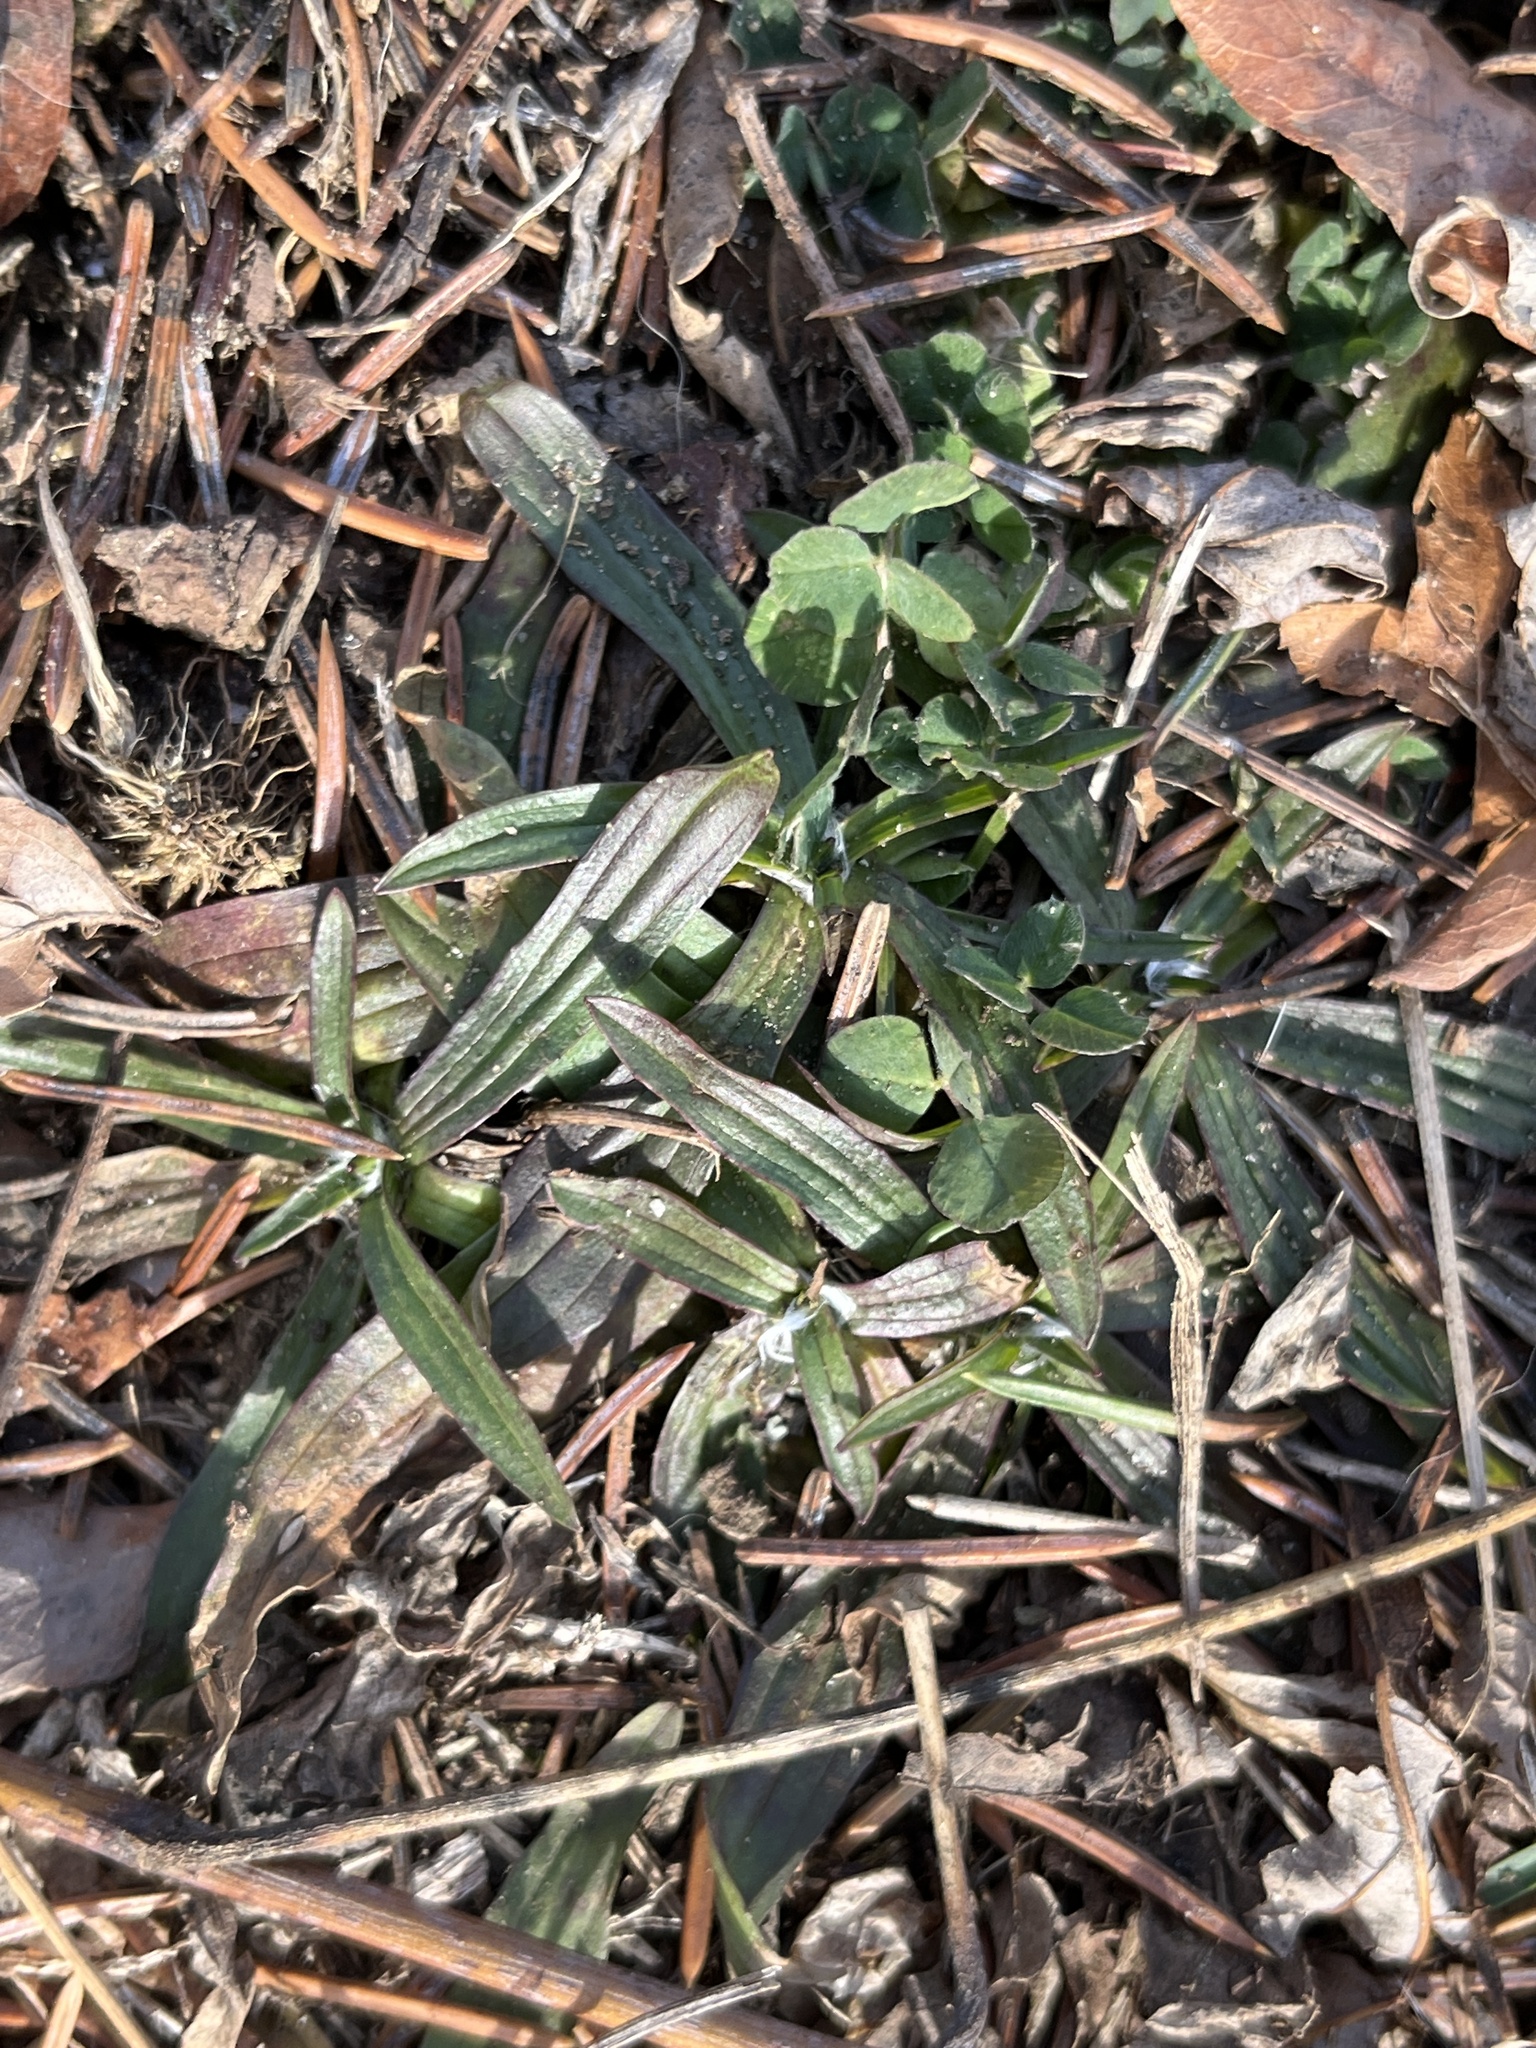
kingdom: Plantae
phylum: Tracheophyta
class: Magnoliopsida
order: Lamiales
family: Plantaginaceae
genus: Plantago
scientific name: Plantago lanceolata
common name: Ribwort plantain
